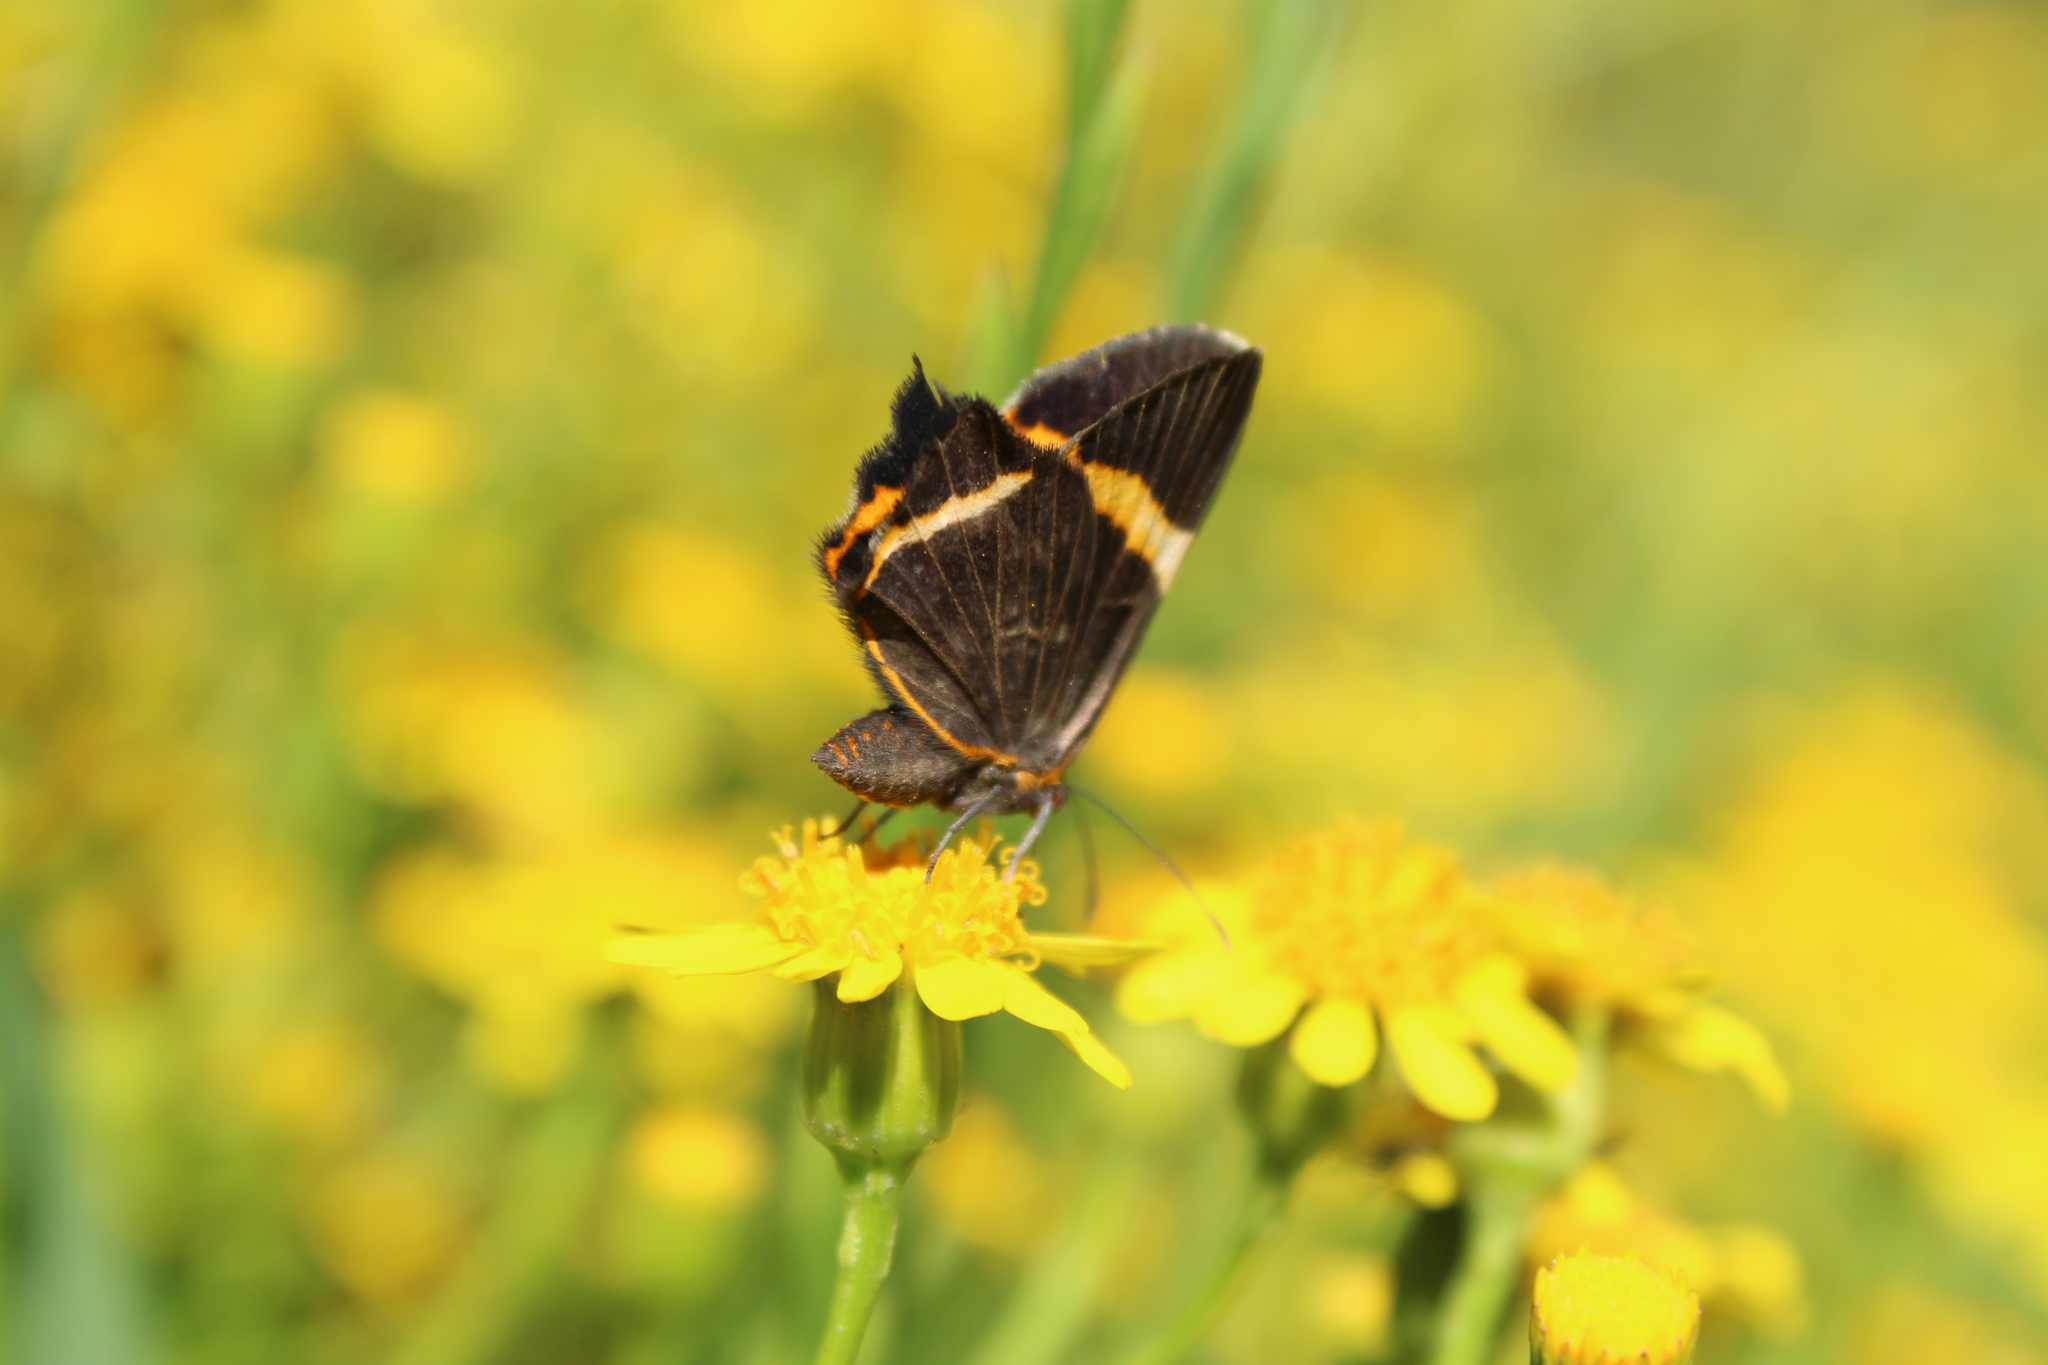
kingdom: Animalia
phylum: Arthropoda
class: Insecta
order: Lepidoptera
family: Riodinidae
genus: Riodina
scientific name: Riodina lysippoides
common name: Little dancer metalmark
